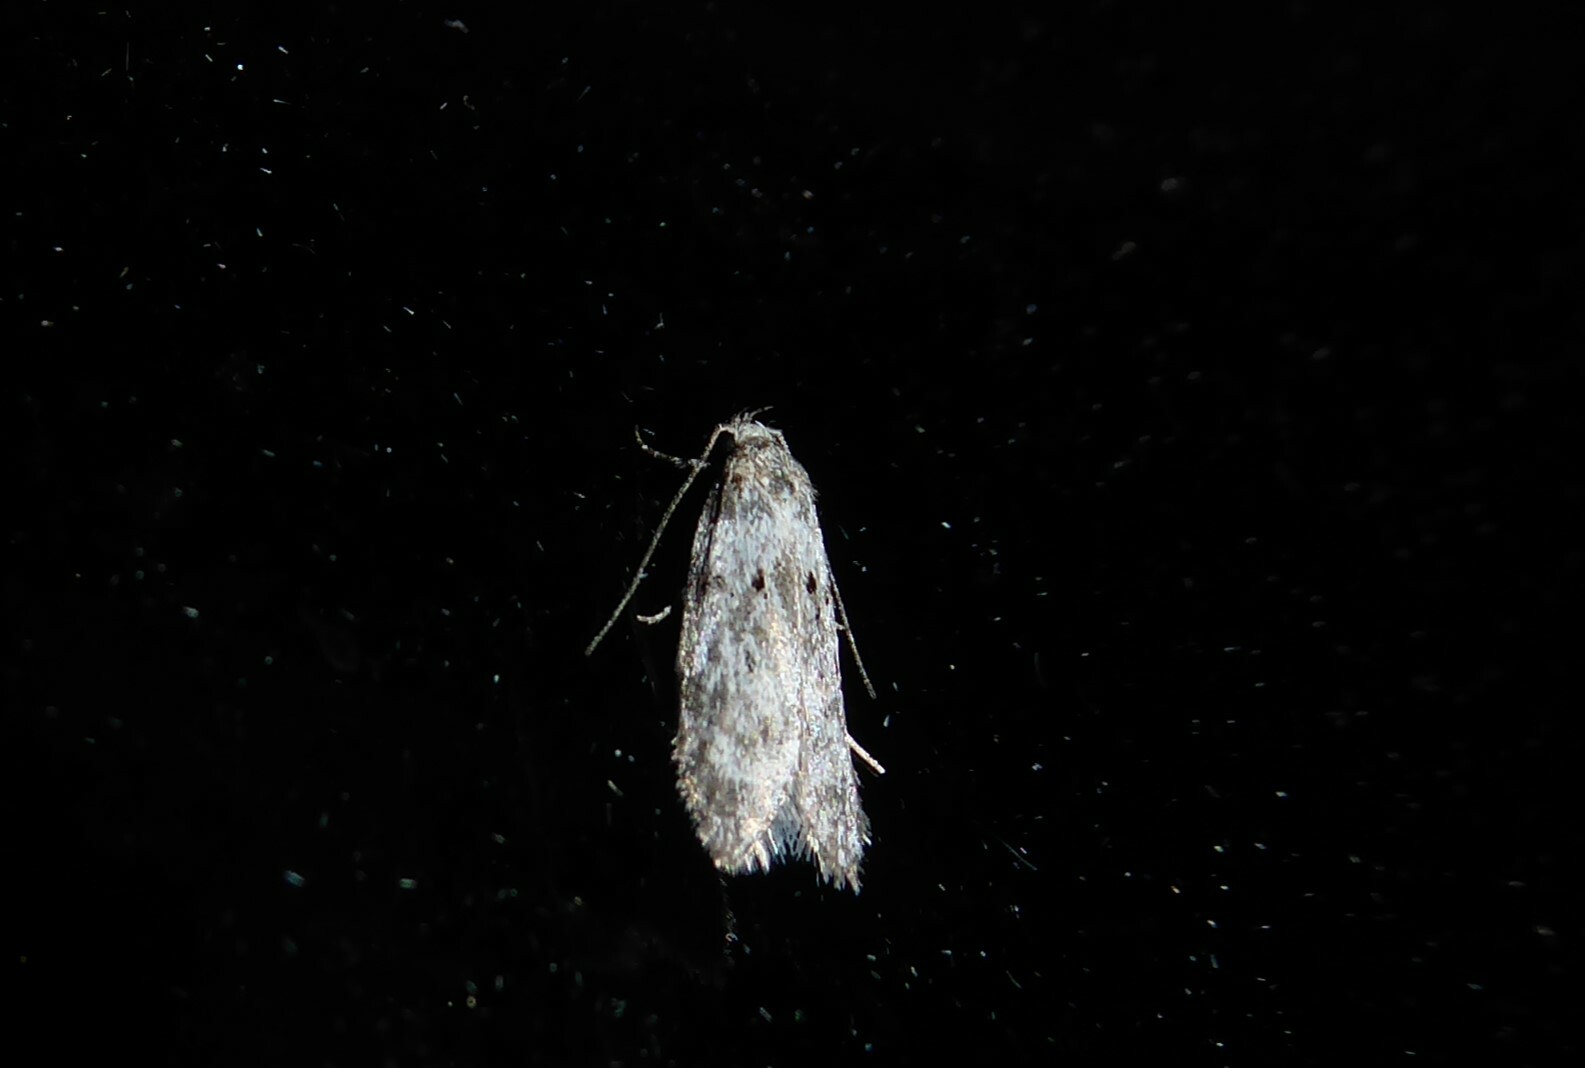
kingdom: Animalia
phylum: Arthropoda
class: Insecta
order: Lepidoptera
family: Oecophoridae
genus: Izatha
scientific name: Izatha convulsella
